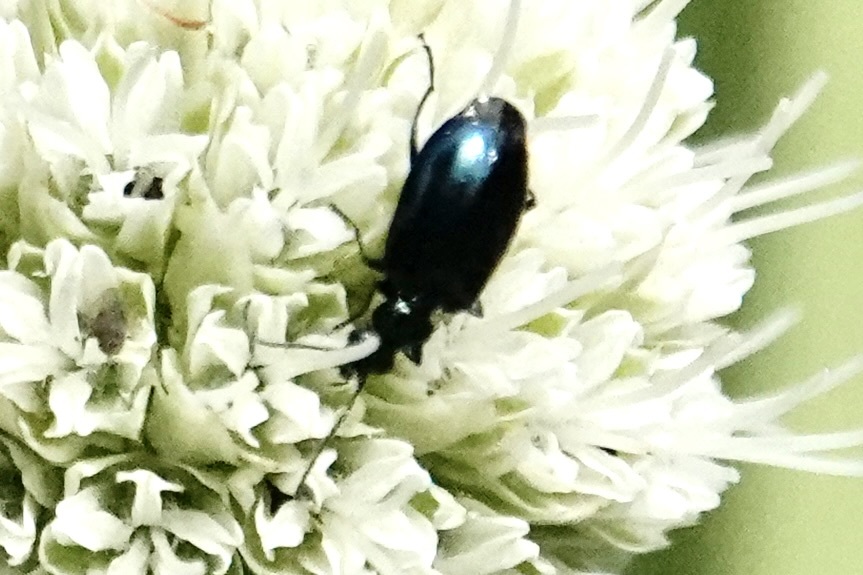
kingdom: Animalia
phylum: Arthropoda
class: Insecta
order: Coleoptera
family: Carabidae
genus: Lebia
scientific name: Lebia viridis
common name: Flower lebia beetle
